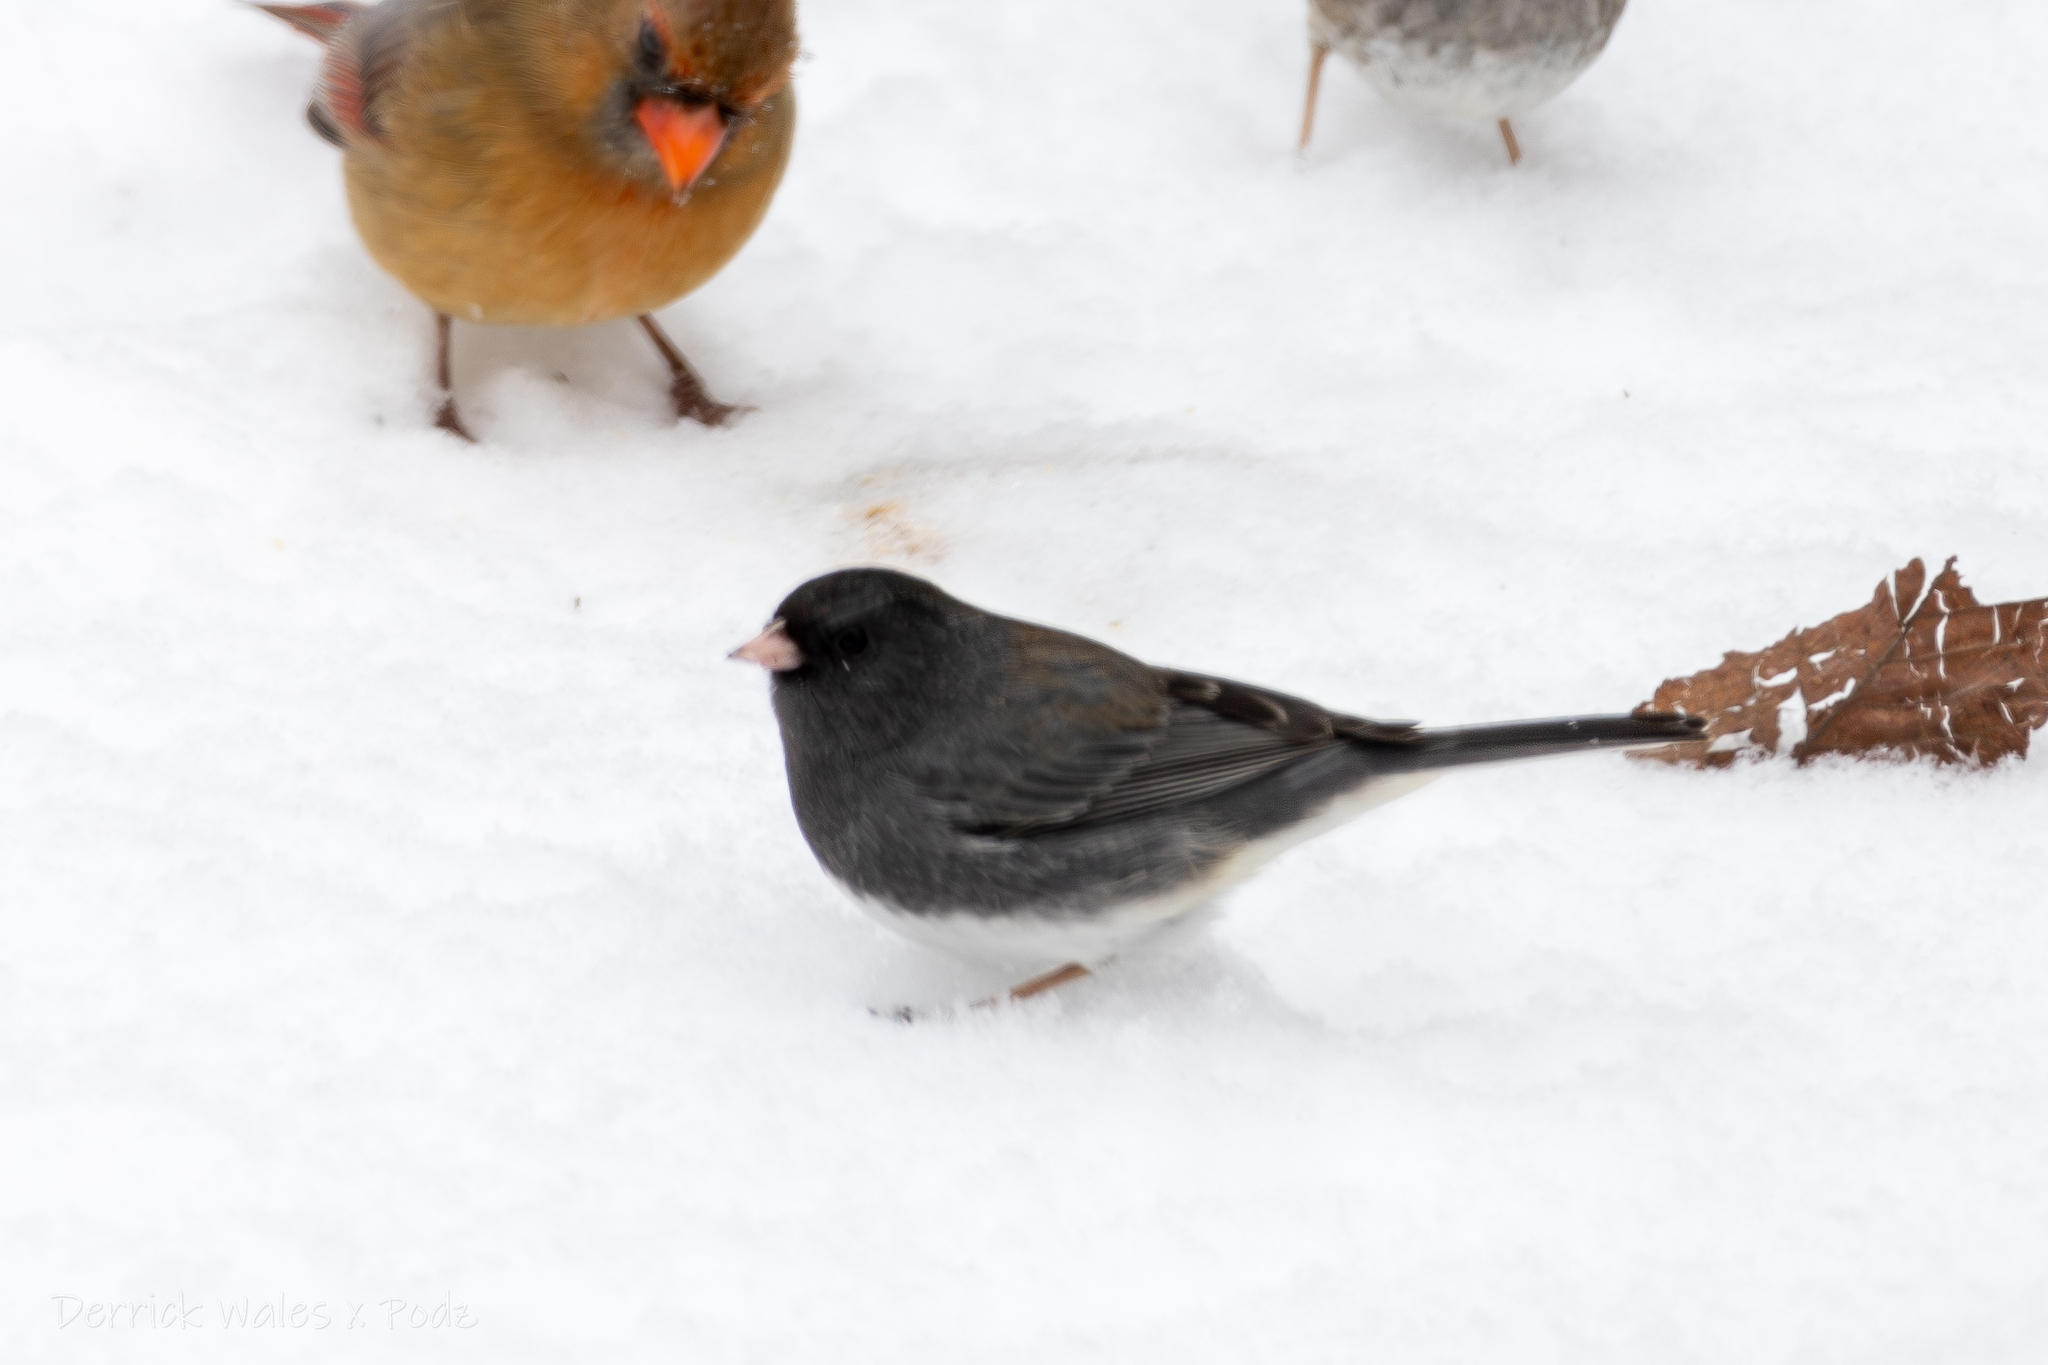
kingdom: Animalia
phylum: Chordata
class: Aves
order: Passeriformes
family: Passerellidae
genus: Junco
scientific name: Junco hyemalis
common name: Dark-eyed junco
